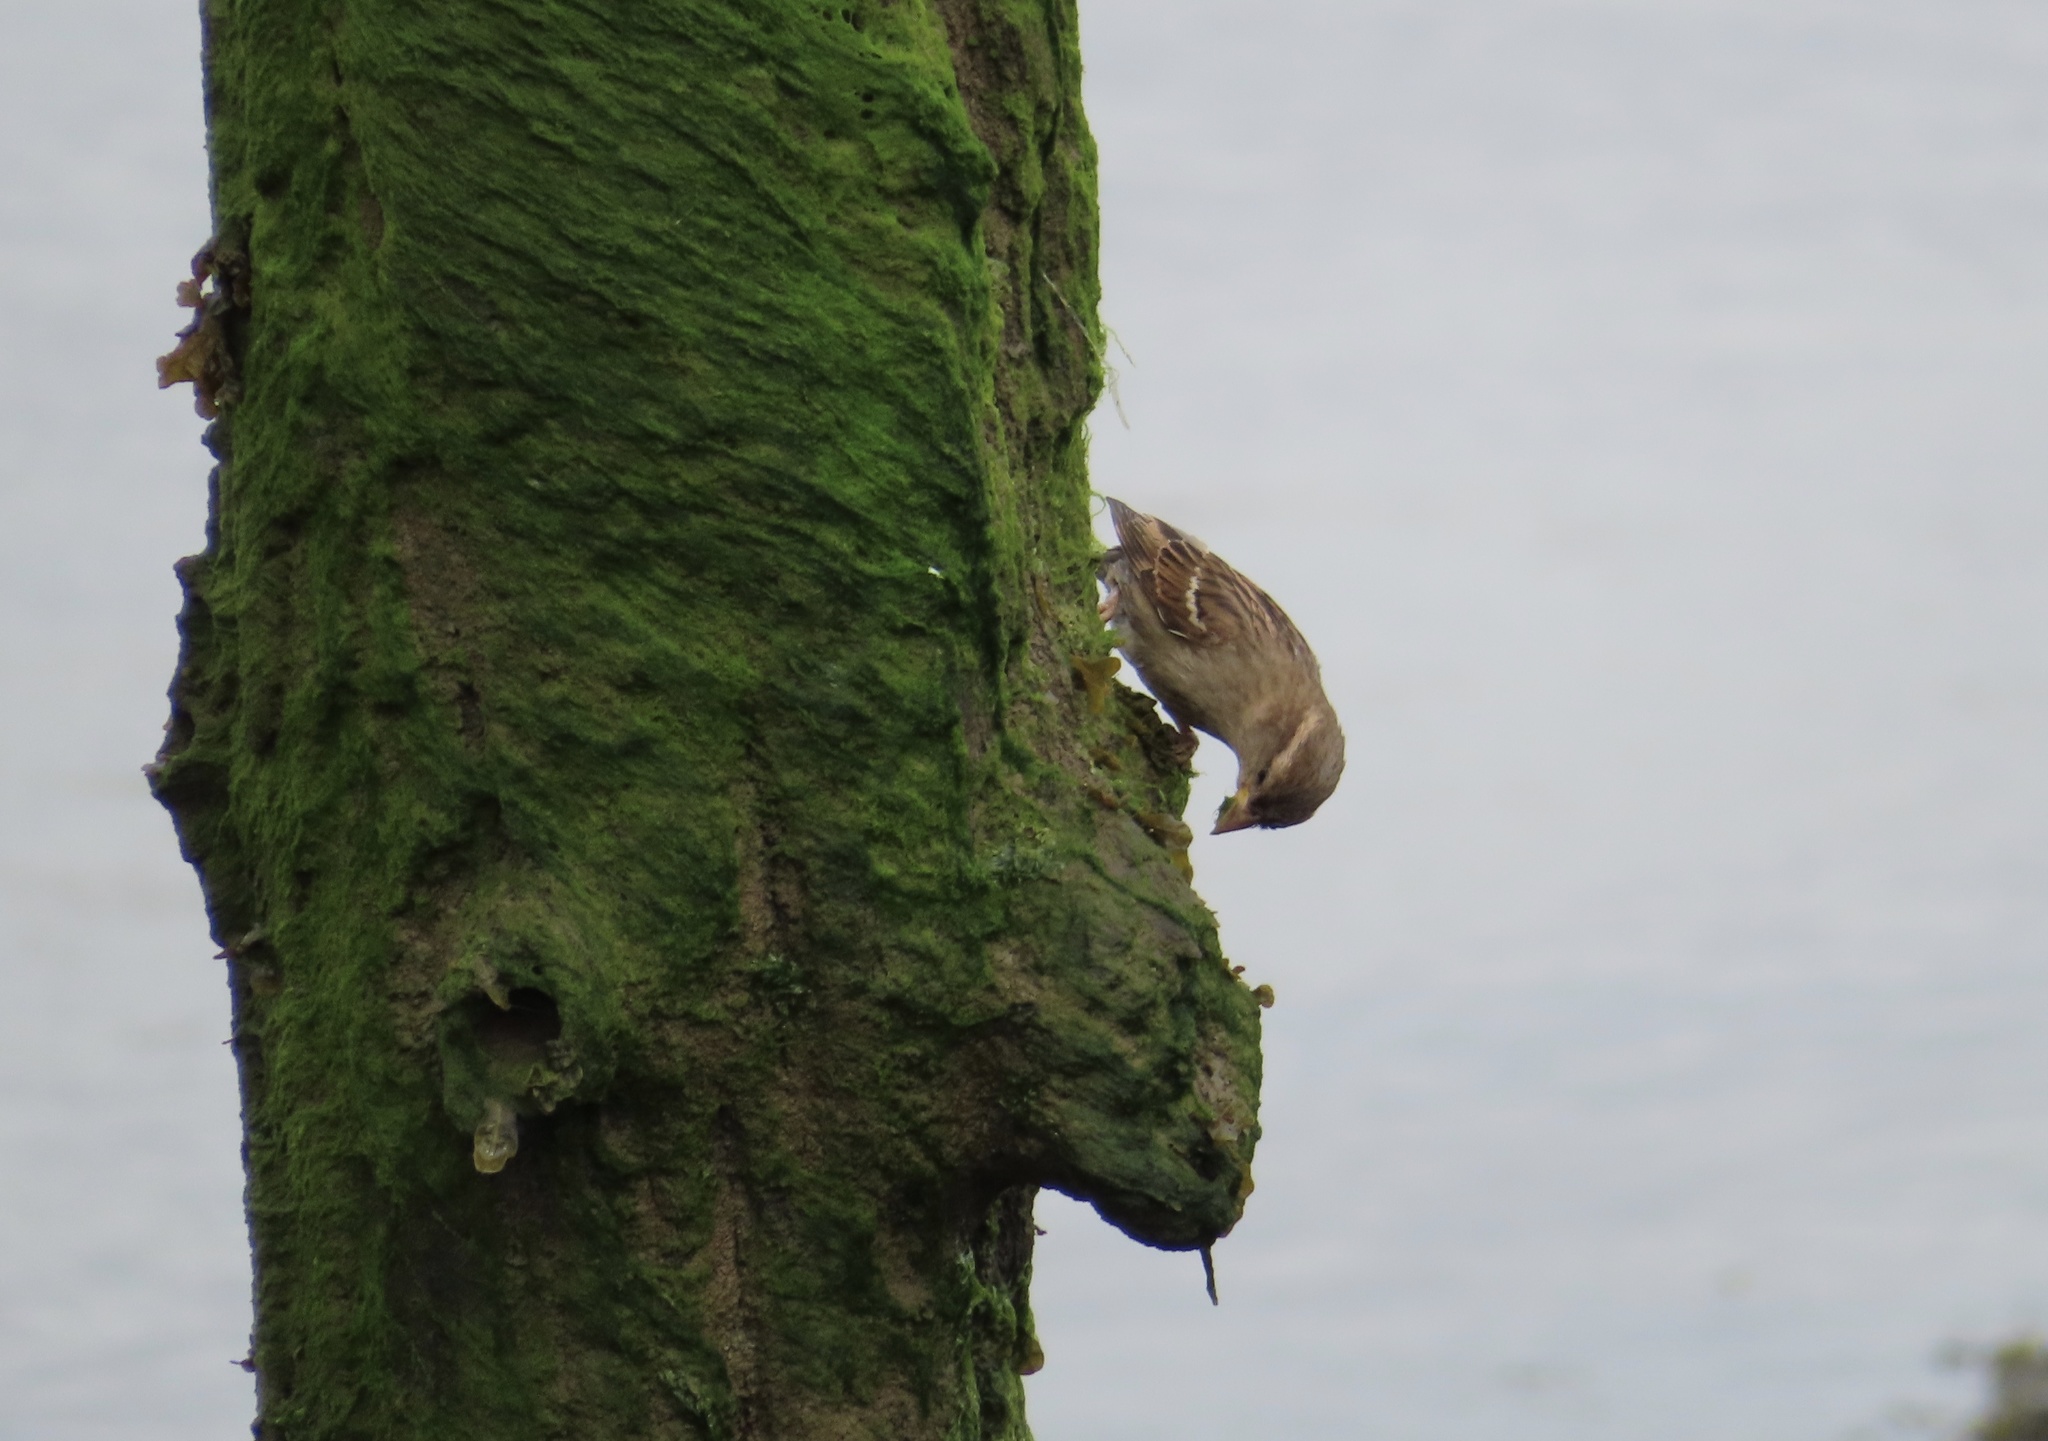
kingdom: Animalia
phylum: Chordata
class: Aves
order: Passeriformes
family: Passeridae
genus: Passer
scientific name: Passer domesticus
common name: House sparrow
